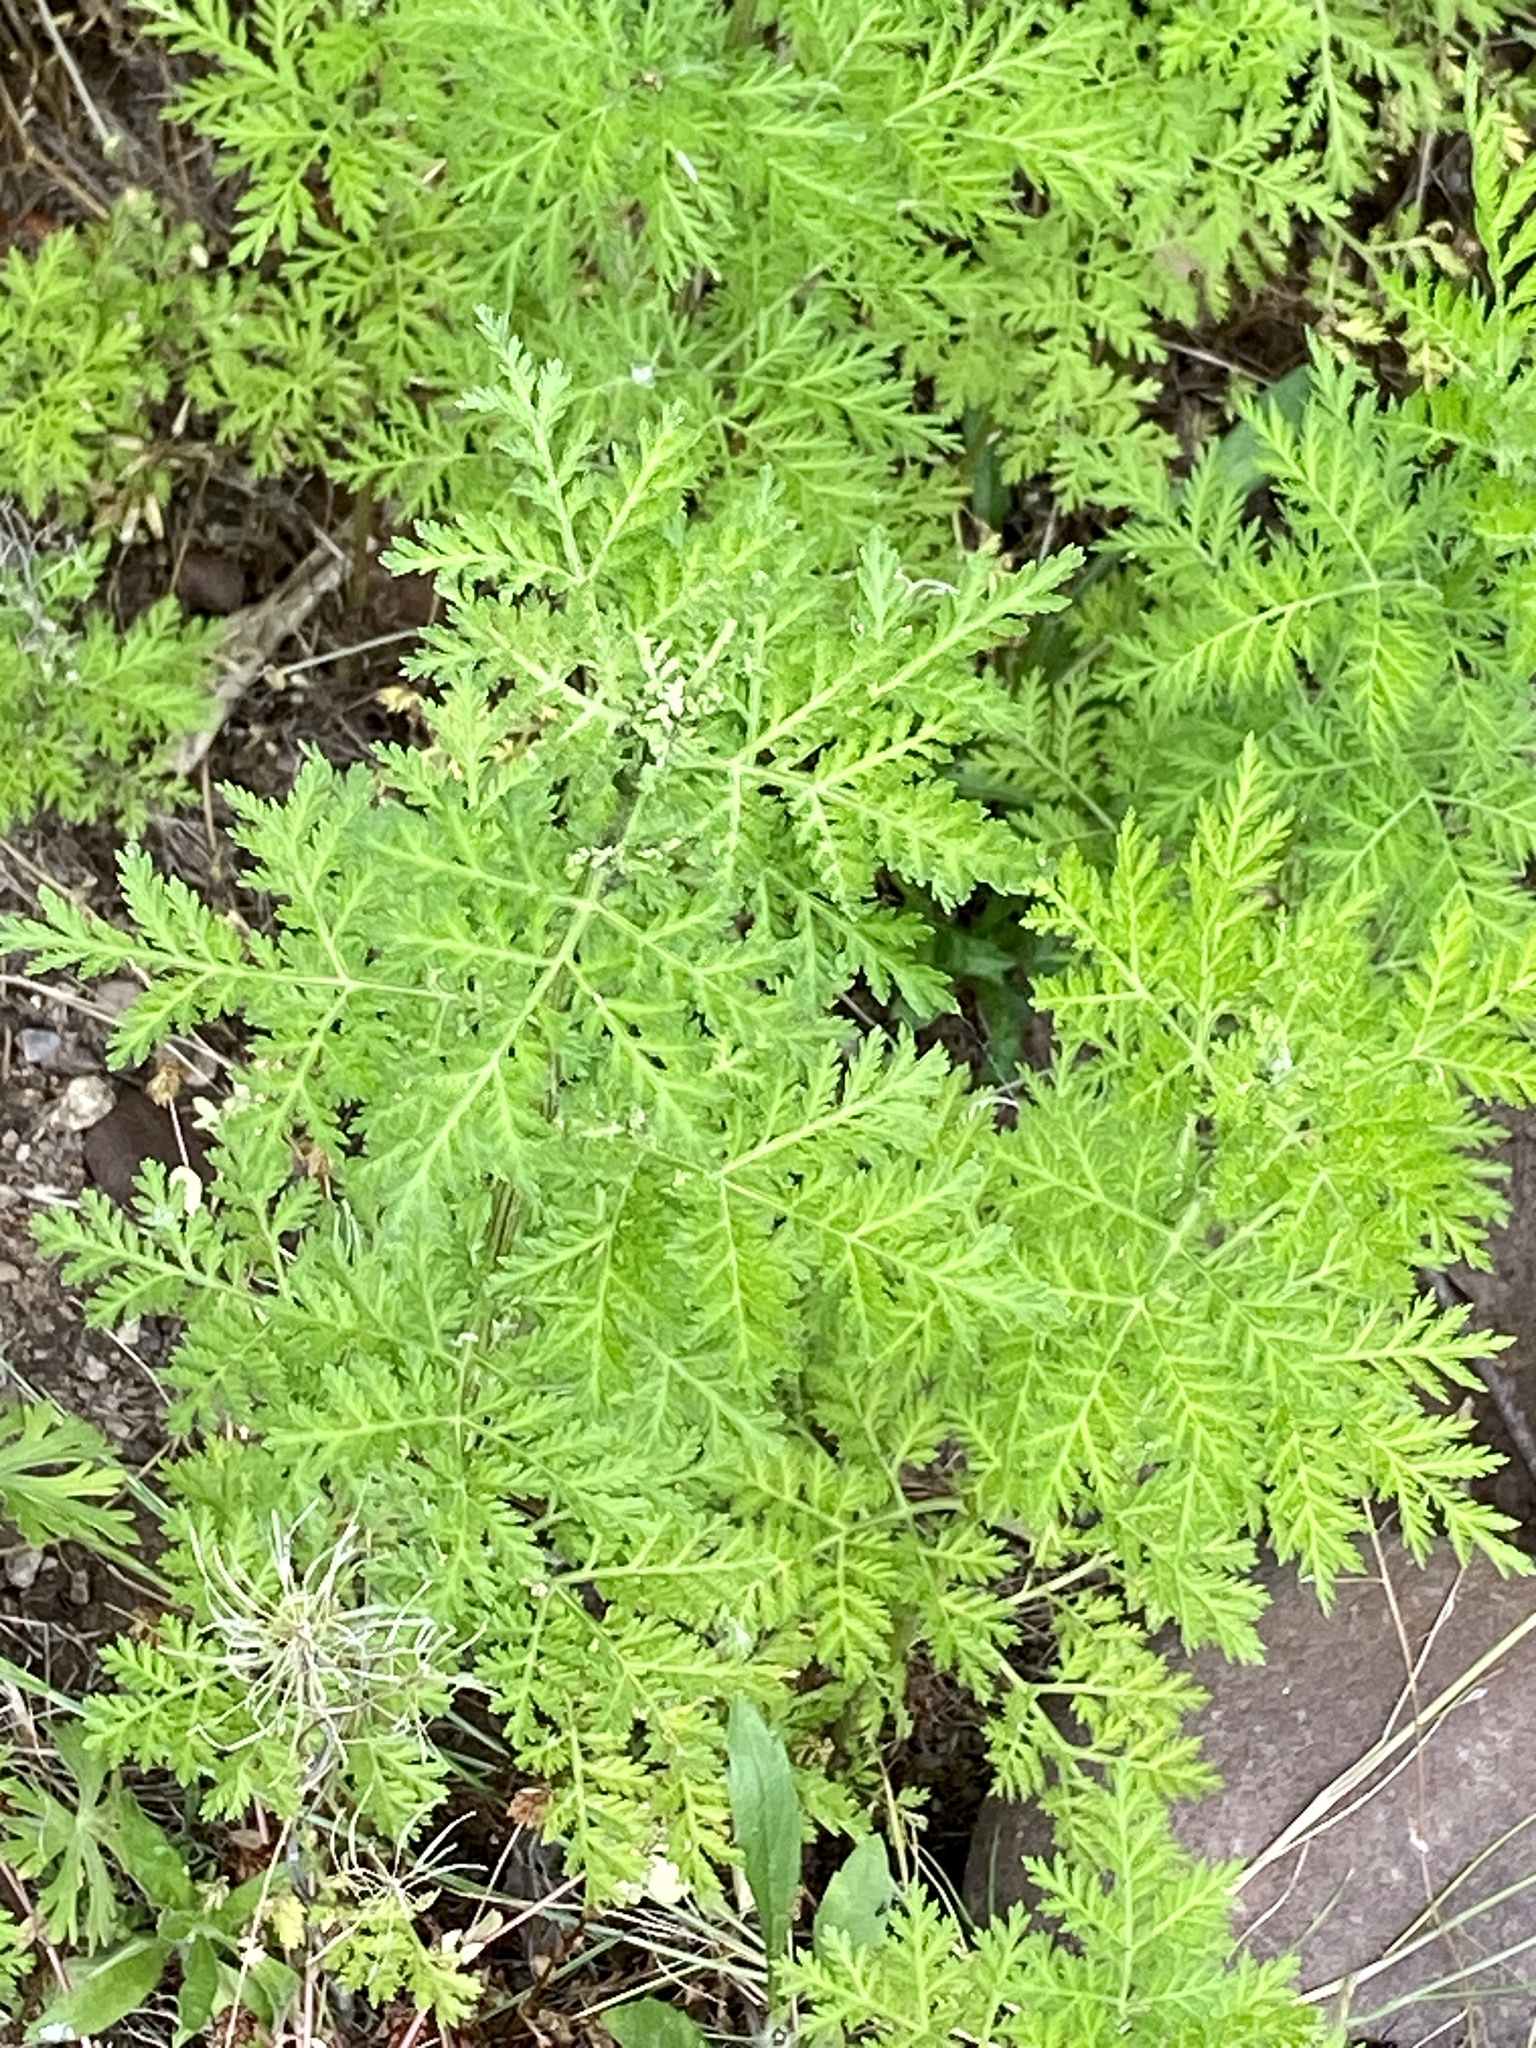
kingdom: Plantae
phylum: Tracheophyta
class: Magnoliopsida
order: Asterales
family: Asteraceae
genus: Artemisia
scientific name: Artemisia annua
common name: Sweet sagewort
